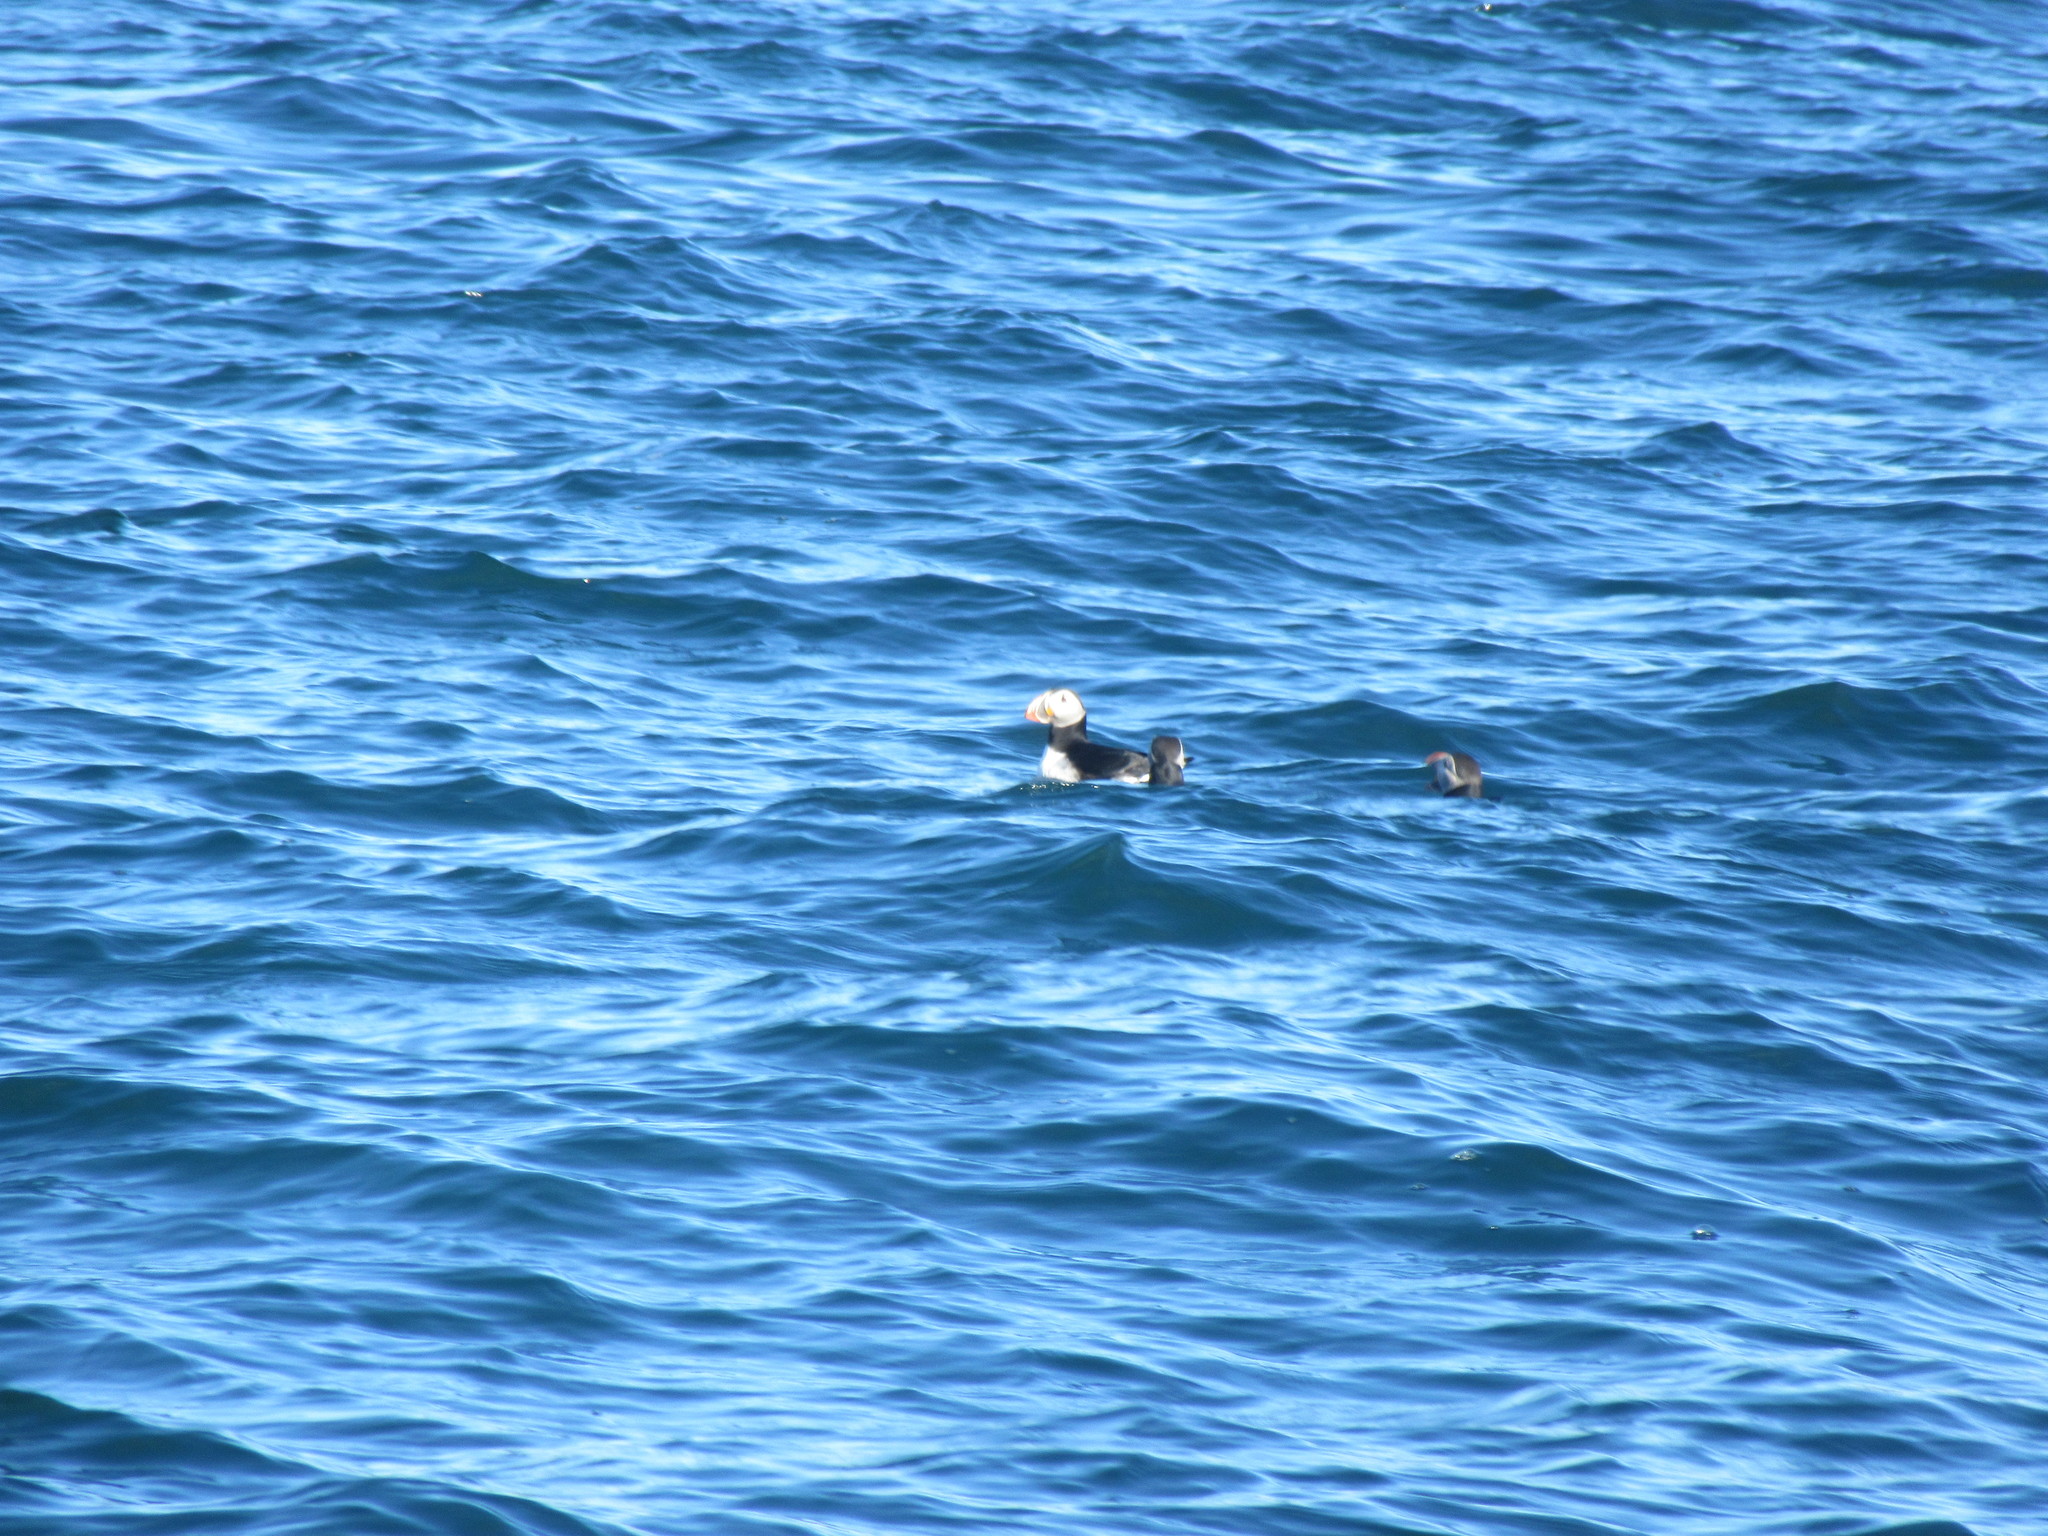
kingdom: Animalia
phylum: Chordata
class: Aves
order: Charadriiformes
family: Alcidae
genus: Fratercula
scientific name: Fratercula arctica
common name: Atlantic puffin
